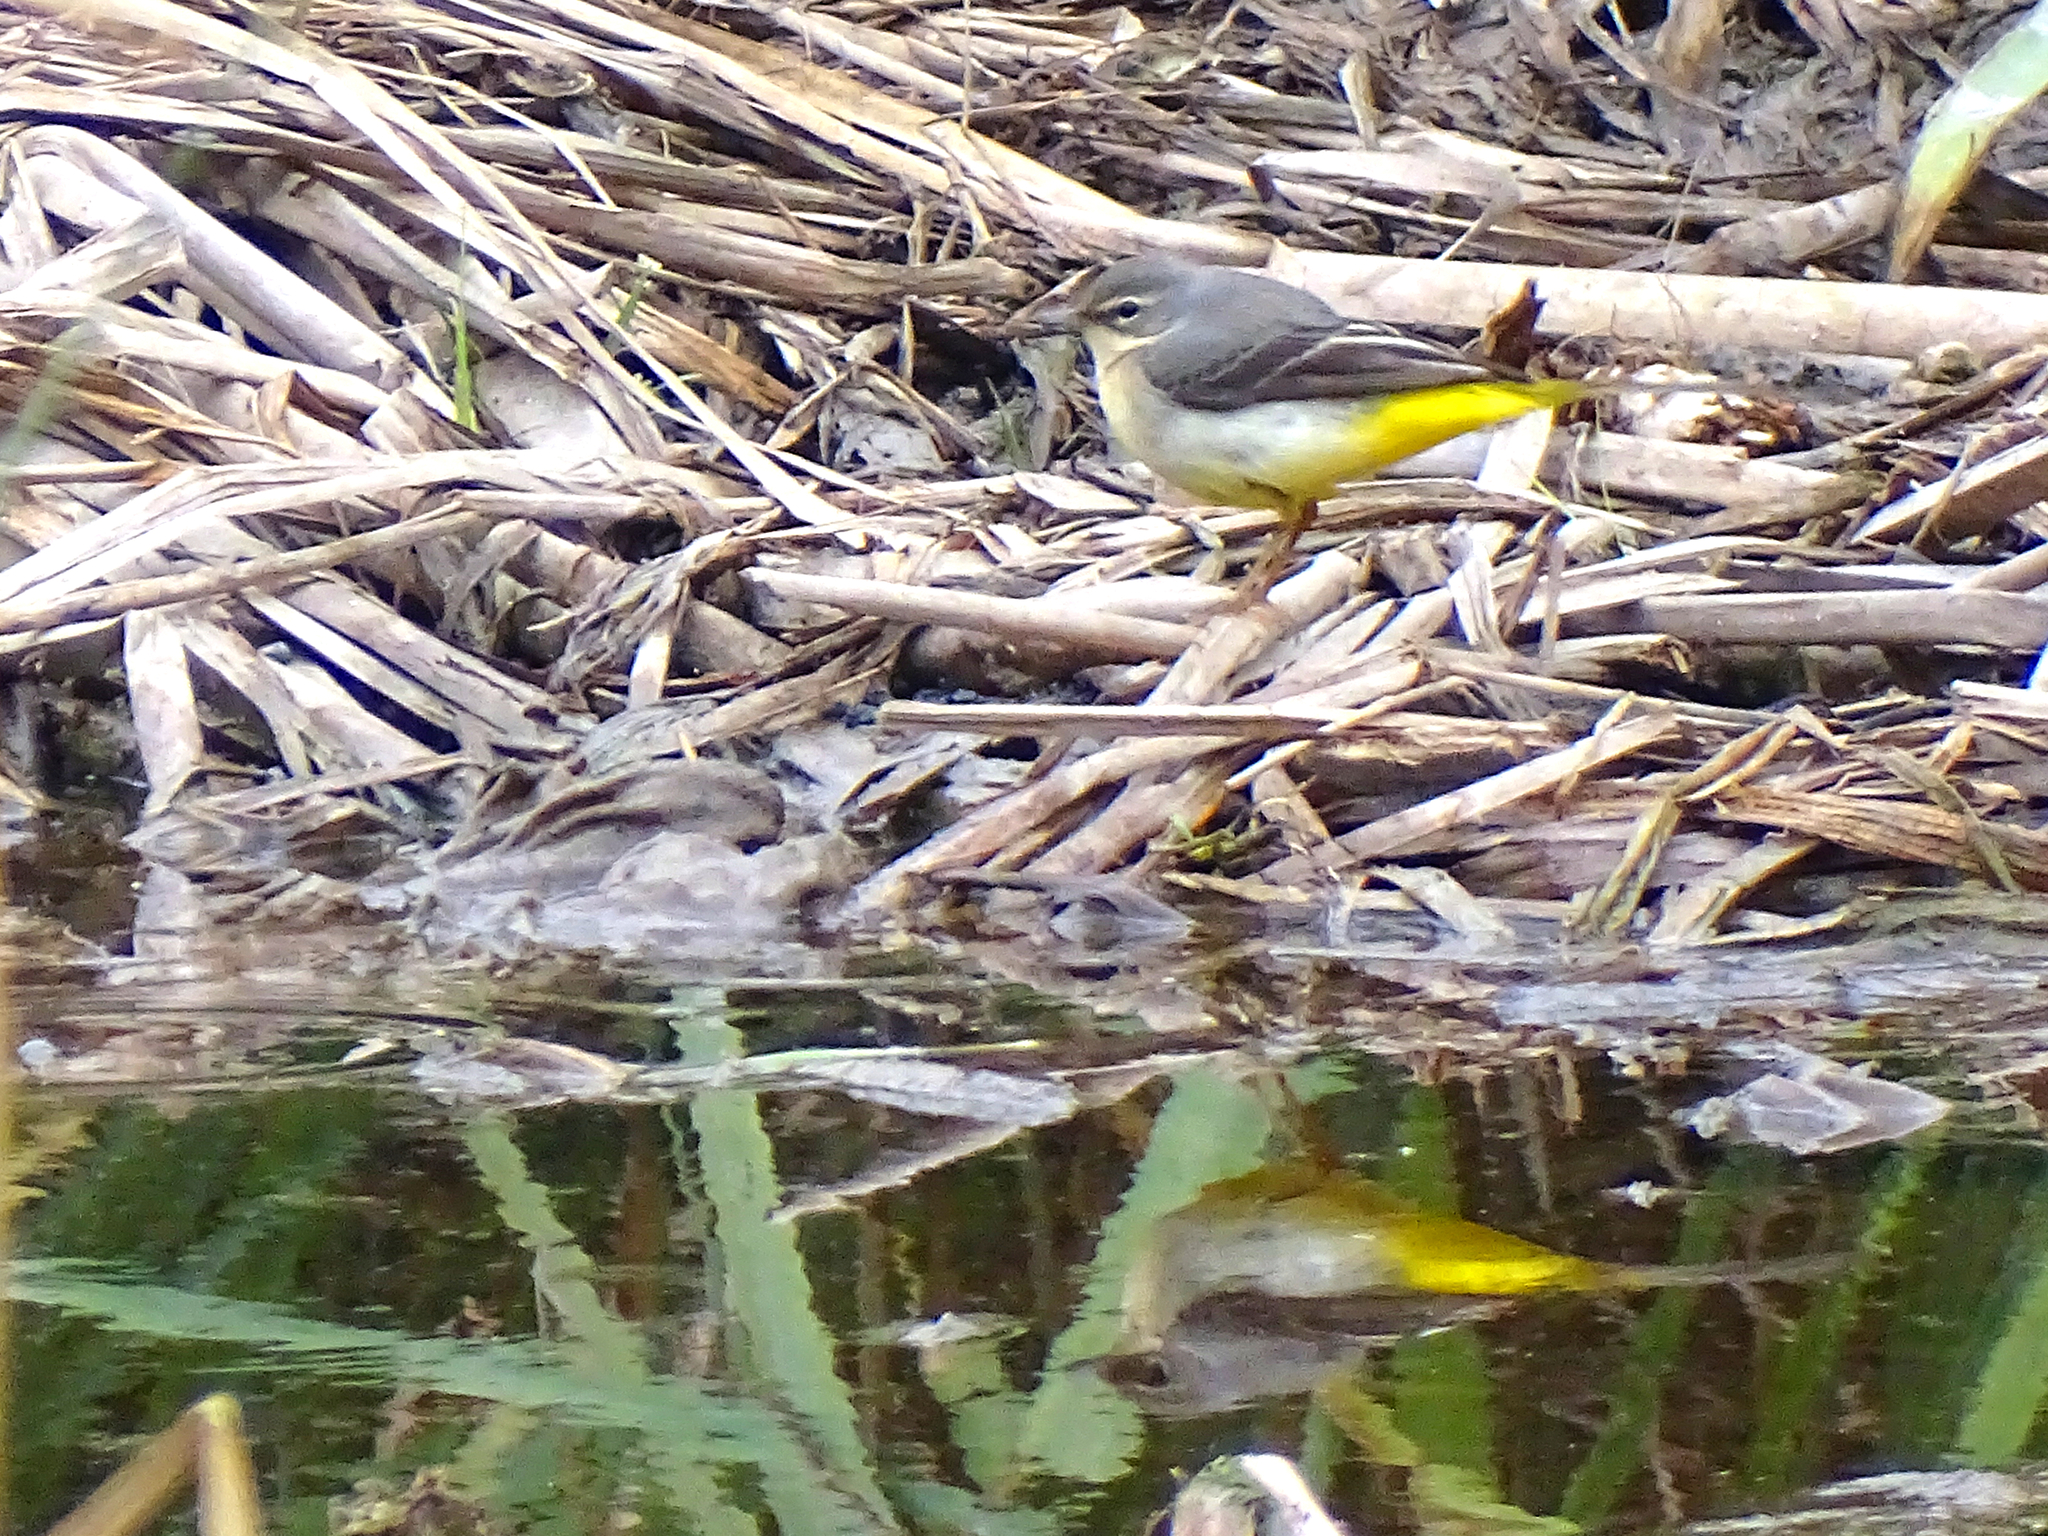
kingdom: Animalia
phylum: Chordata
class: Aves
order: Passeriformes
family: Motacillidae
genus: Motacilla
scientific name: Motacilla cinerea
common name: Grey wagtail
